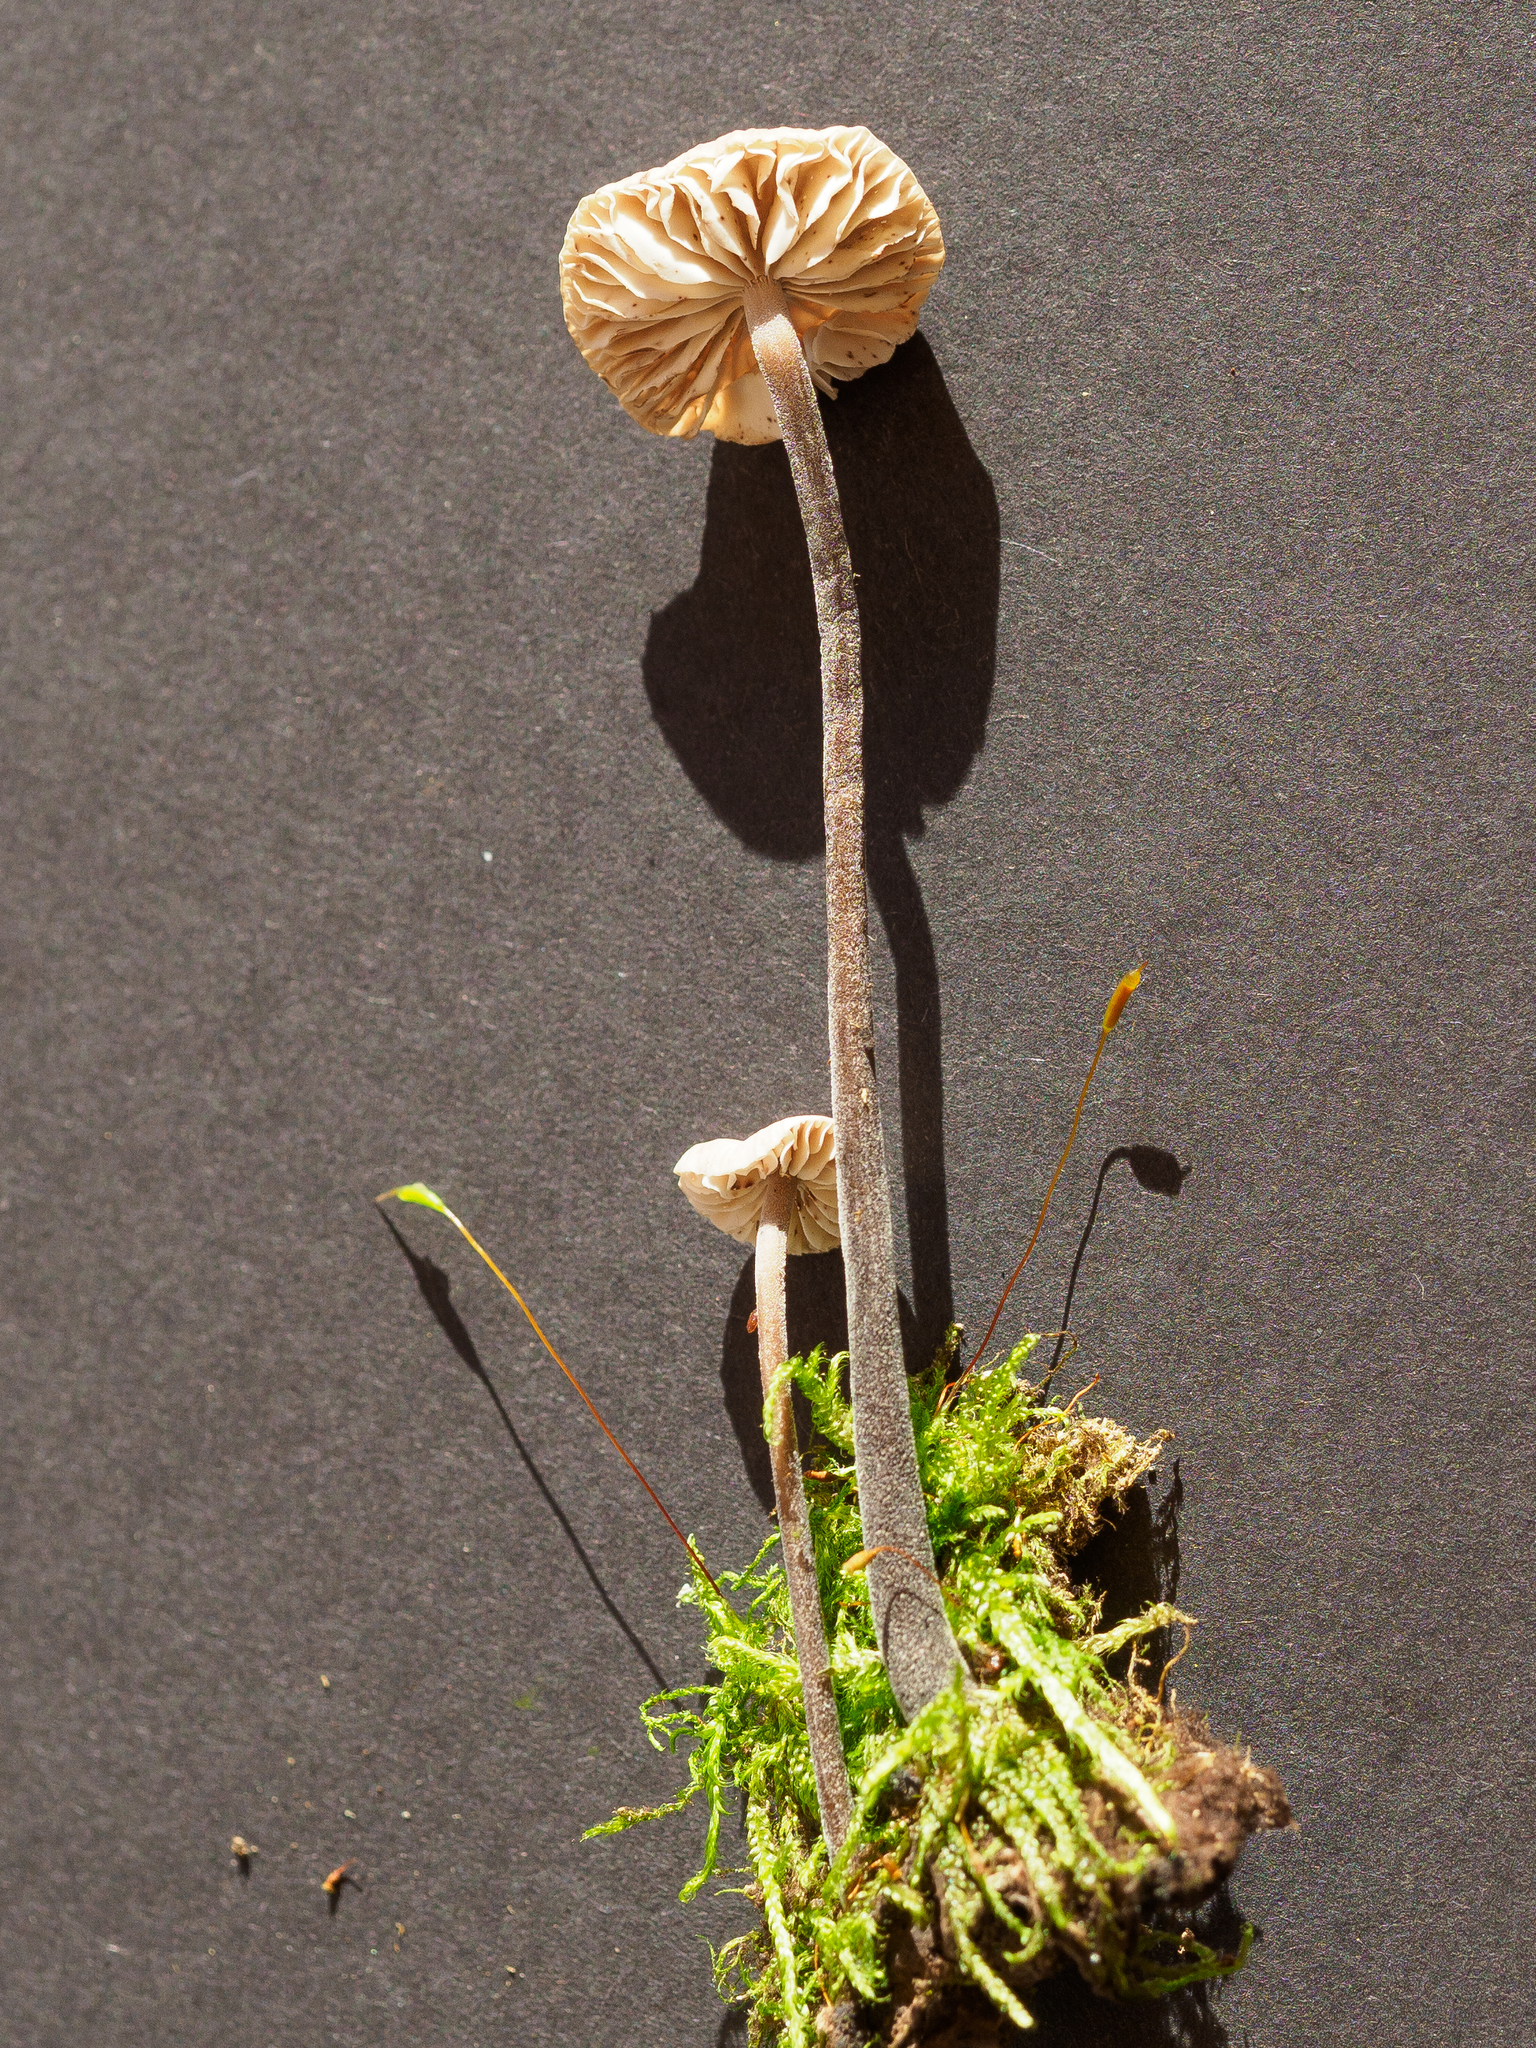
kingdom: Fungi
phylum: Basidiomycota
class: Agaricomycetes
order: Agaricales
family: Omphalotaceae
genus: Mycetinis
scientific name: Mycetinis alliaceus
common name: Garlic parachute
